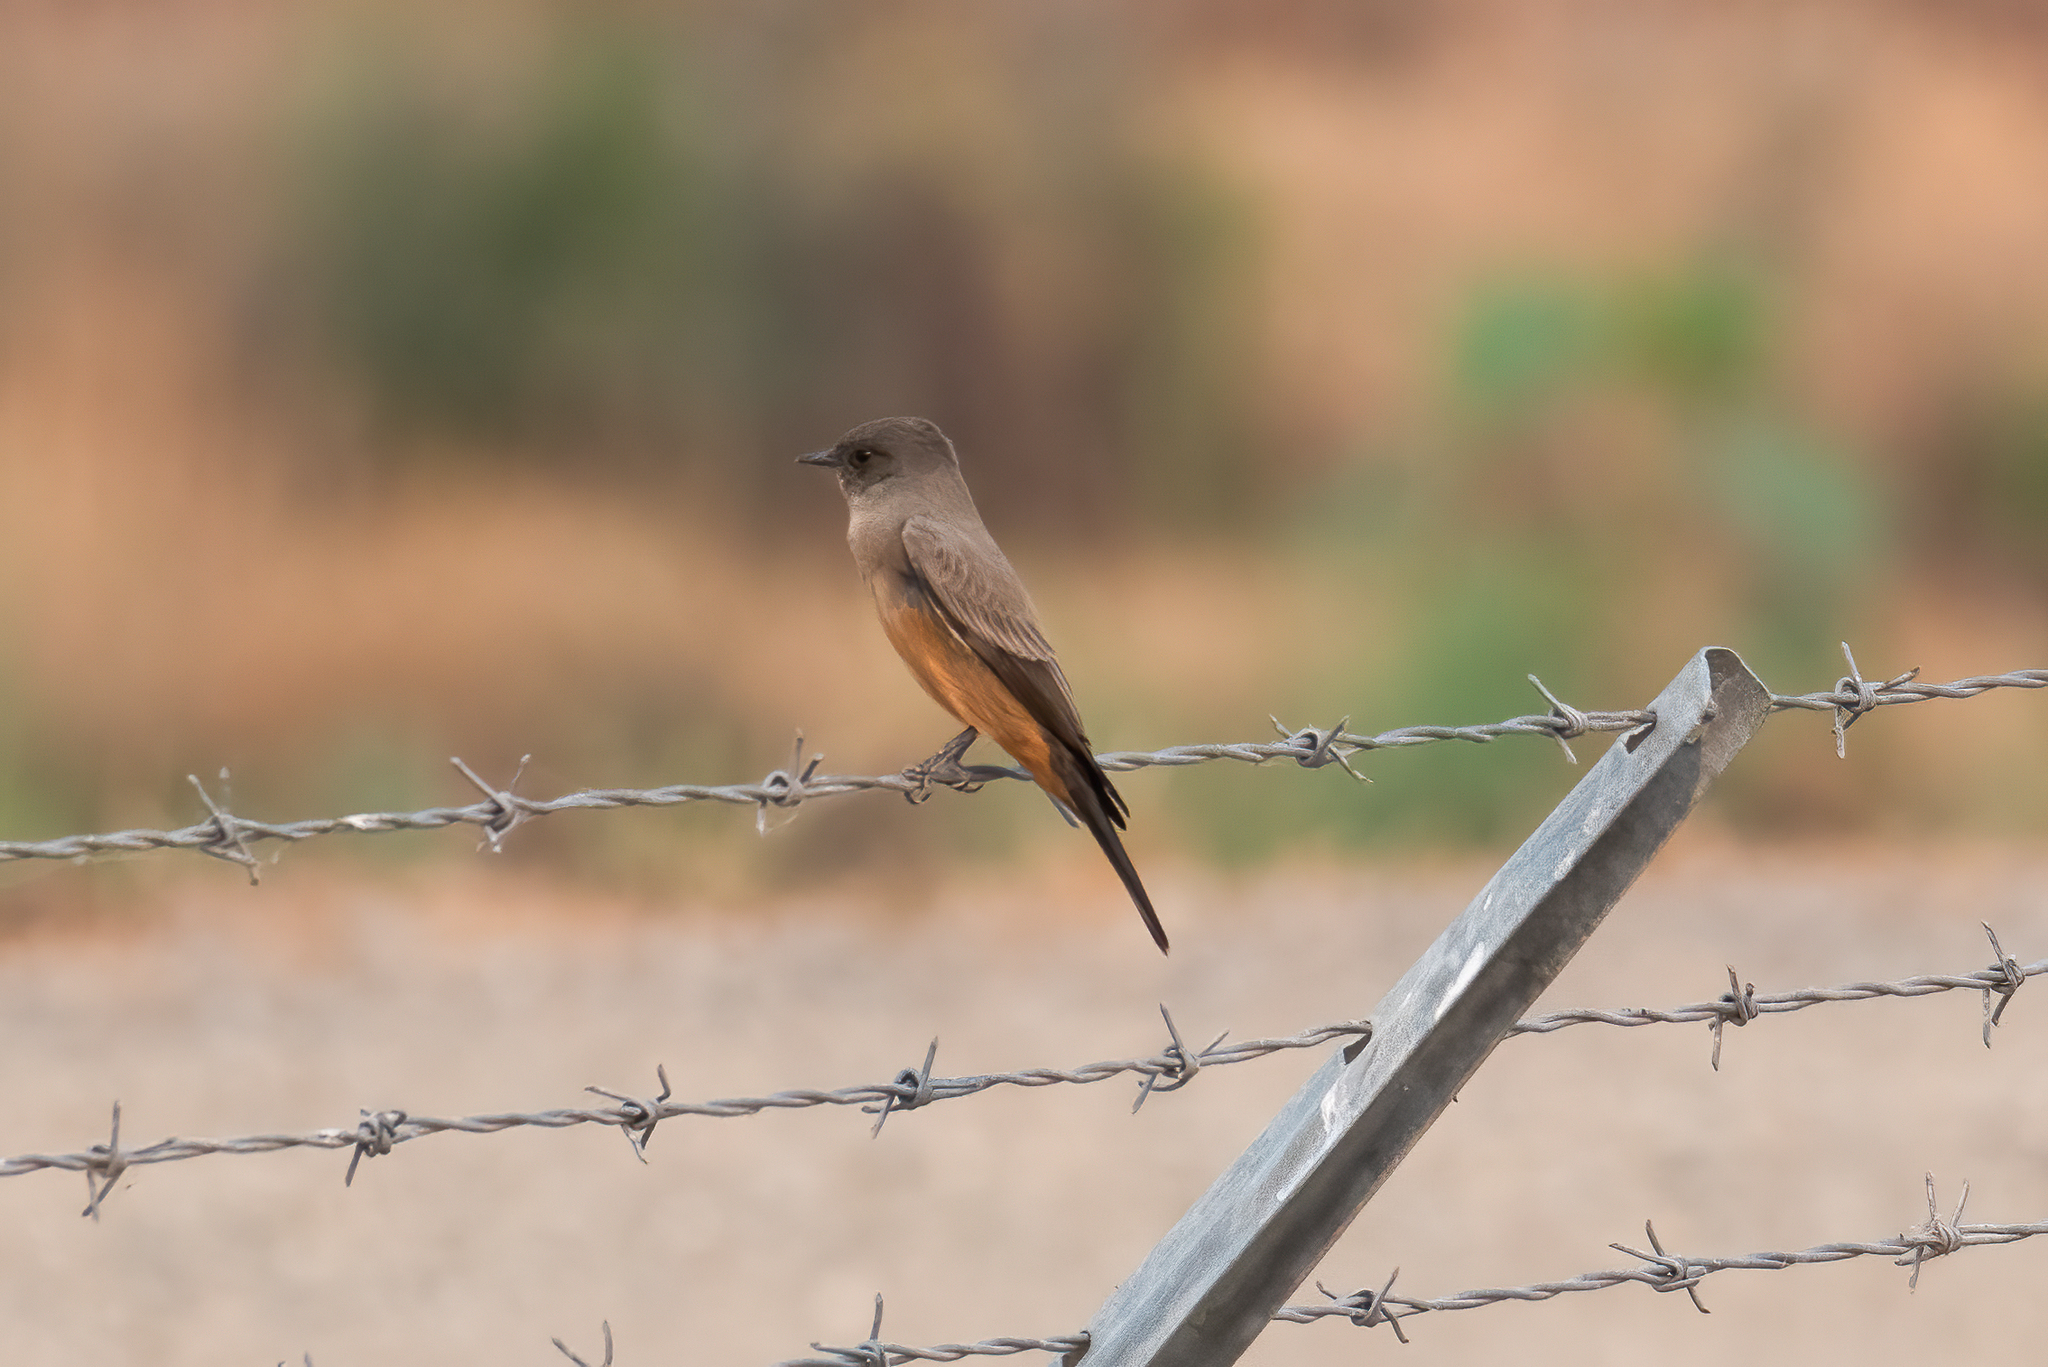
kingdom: Animalia
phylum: Chordata
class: Aves
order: Passeriformes
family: Tyrannidae
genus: Sayornis
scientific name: Sayornis saya
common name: Say's phoebe
